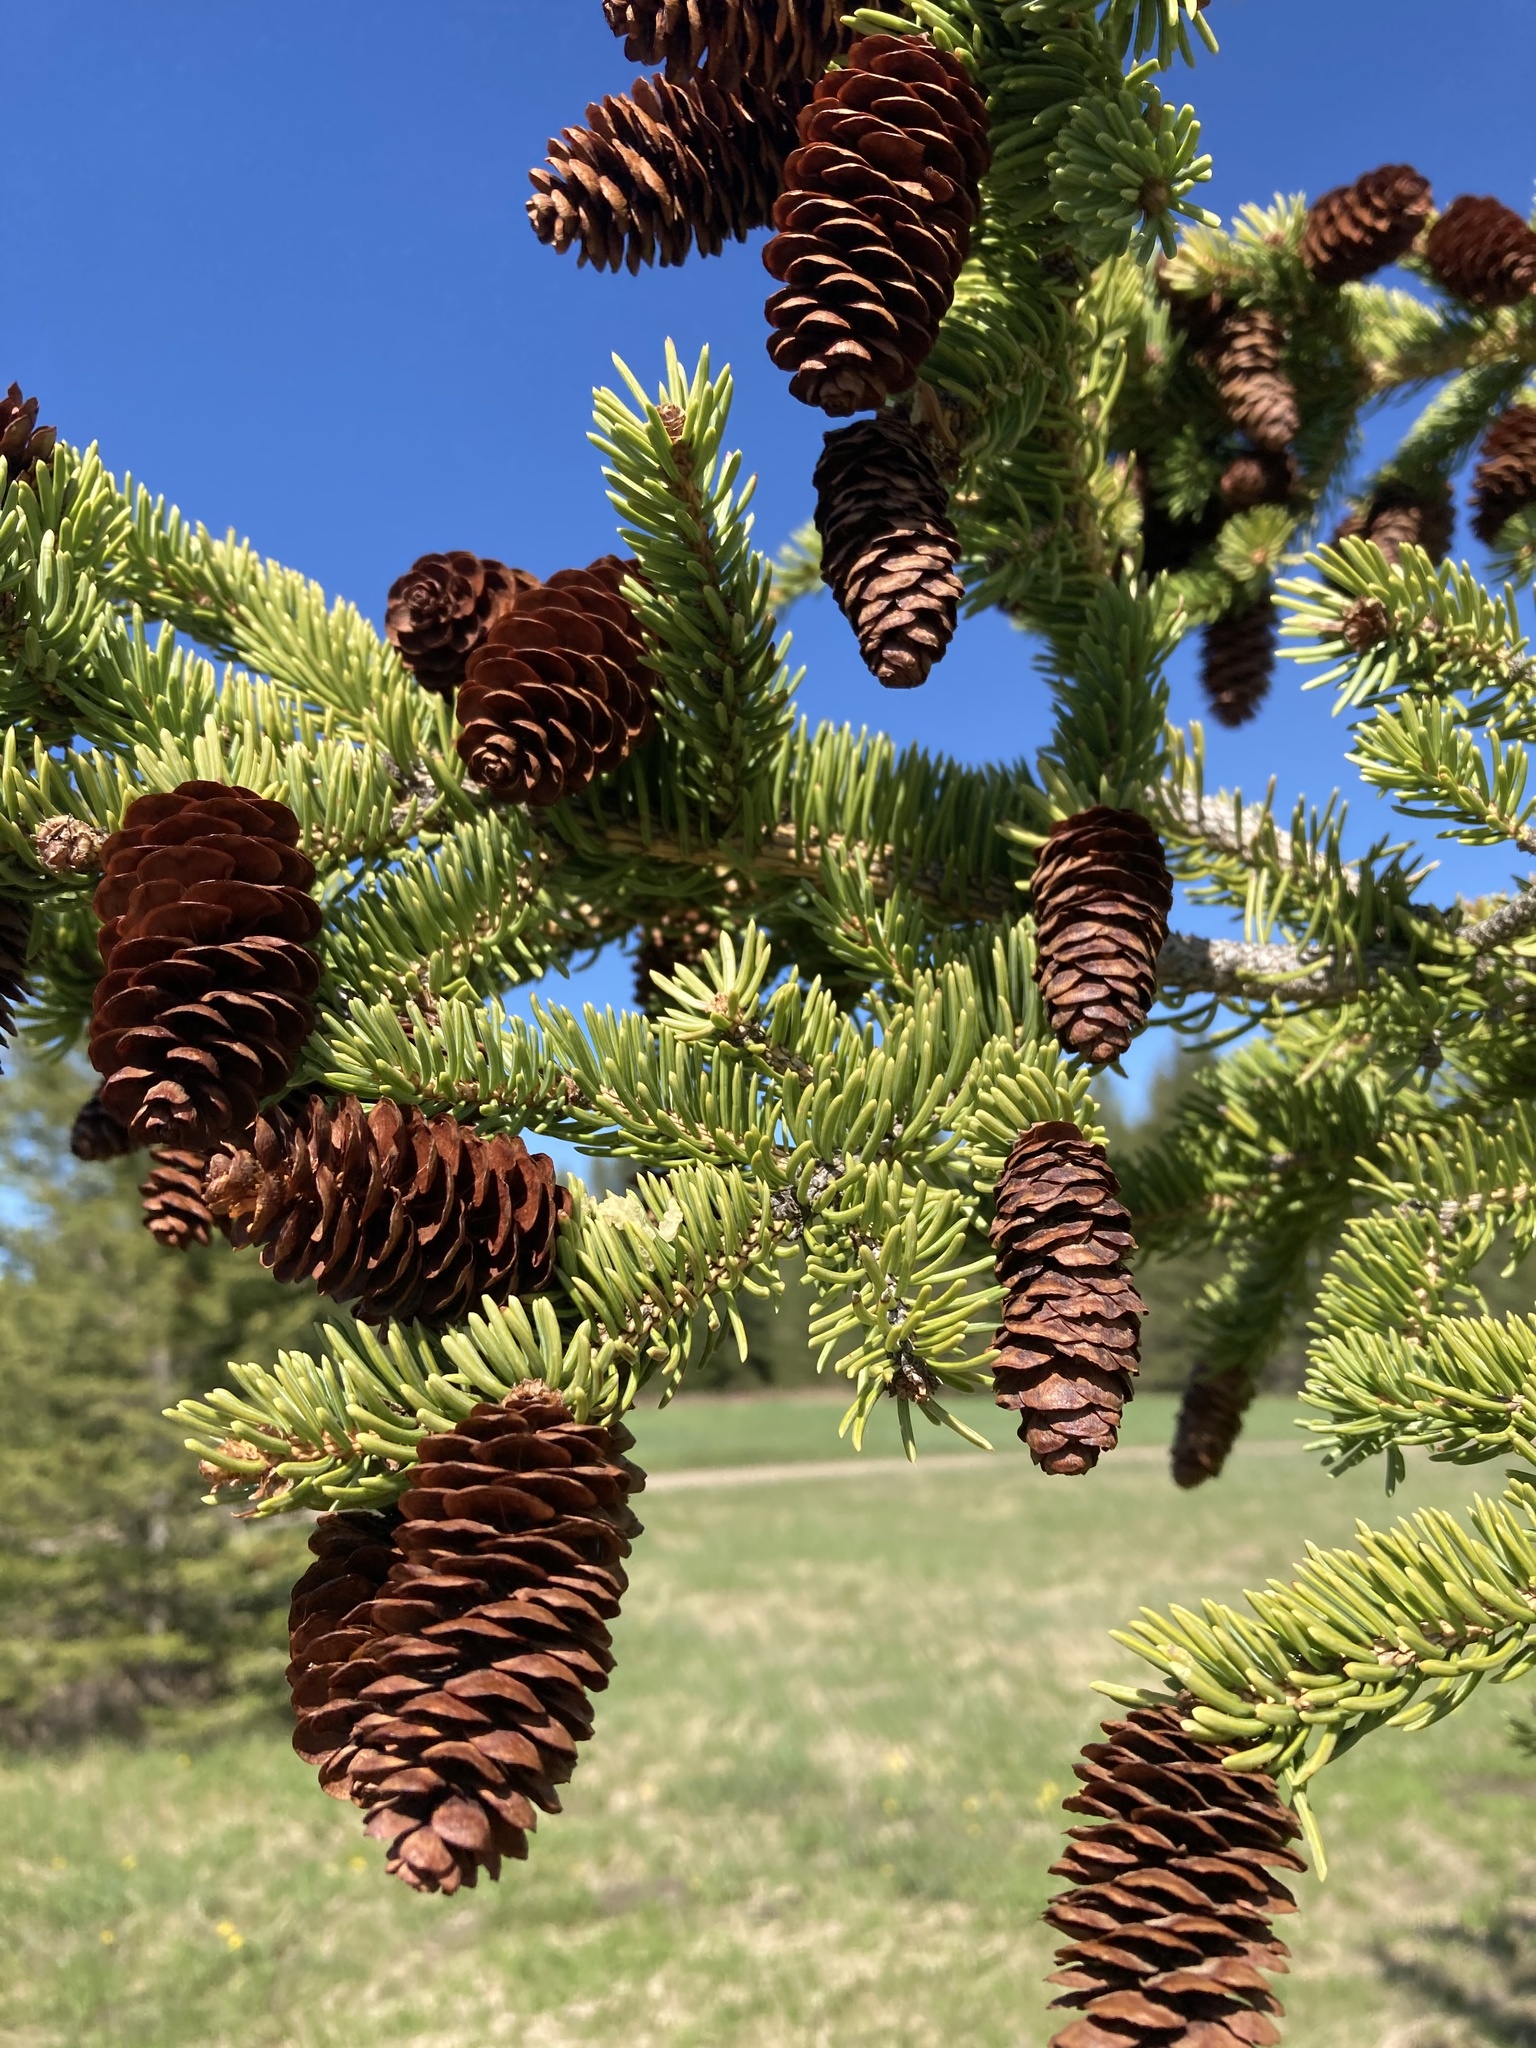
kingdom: Plantae
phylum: Tracheophyta
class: Pinopsida
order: Pinales
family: Pinaceae
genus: Picea
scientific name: Picea glauca
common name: White spruce
